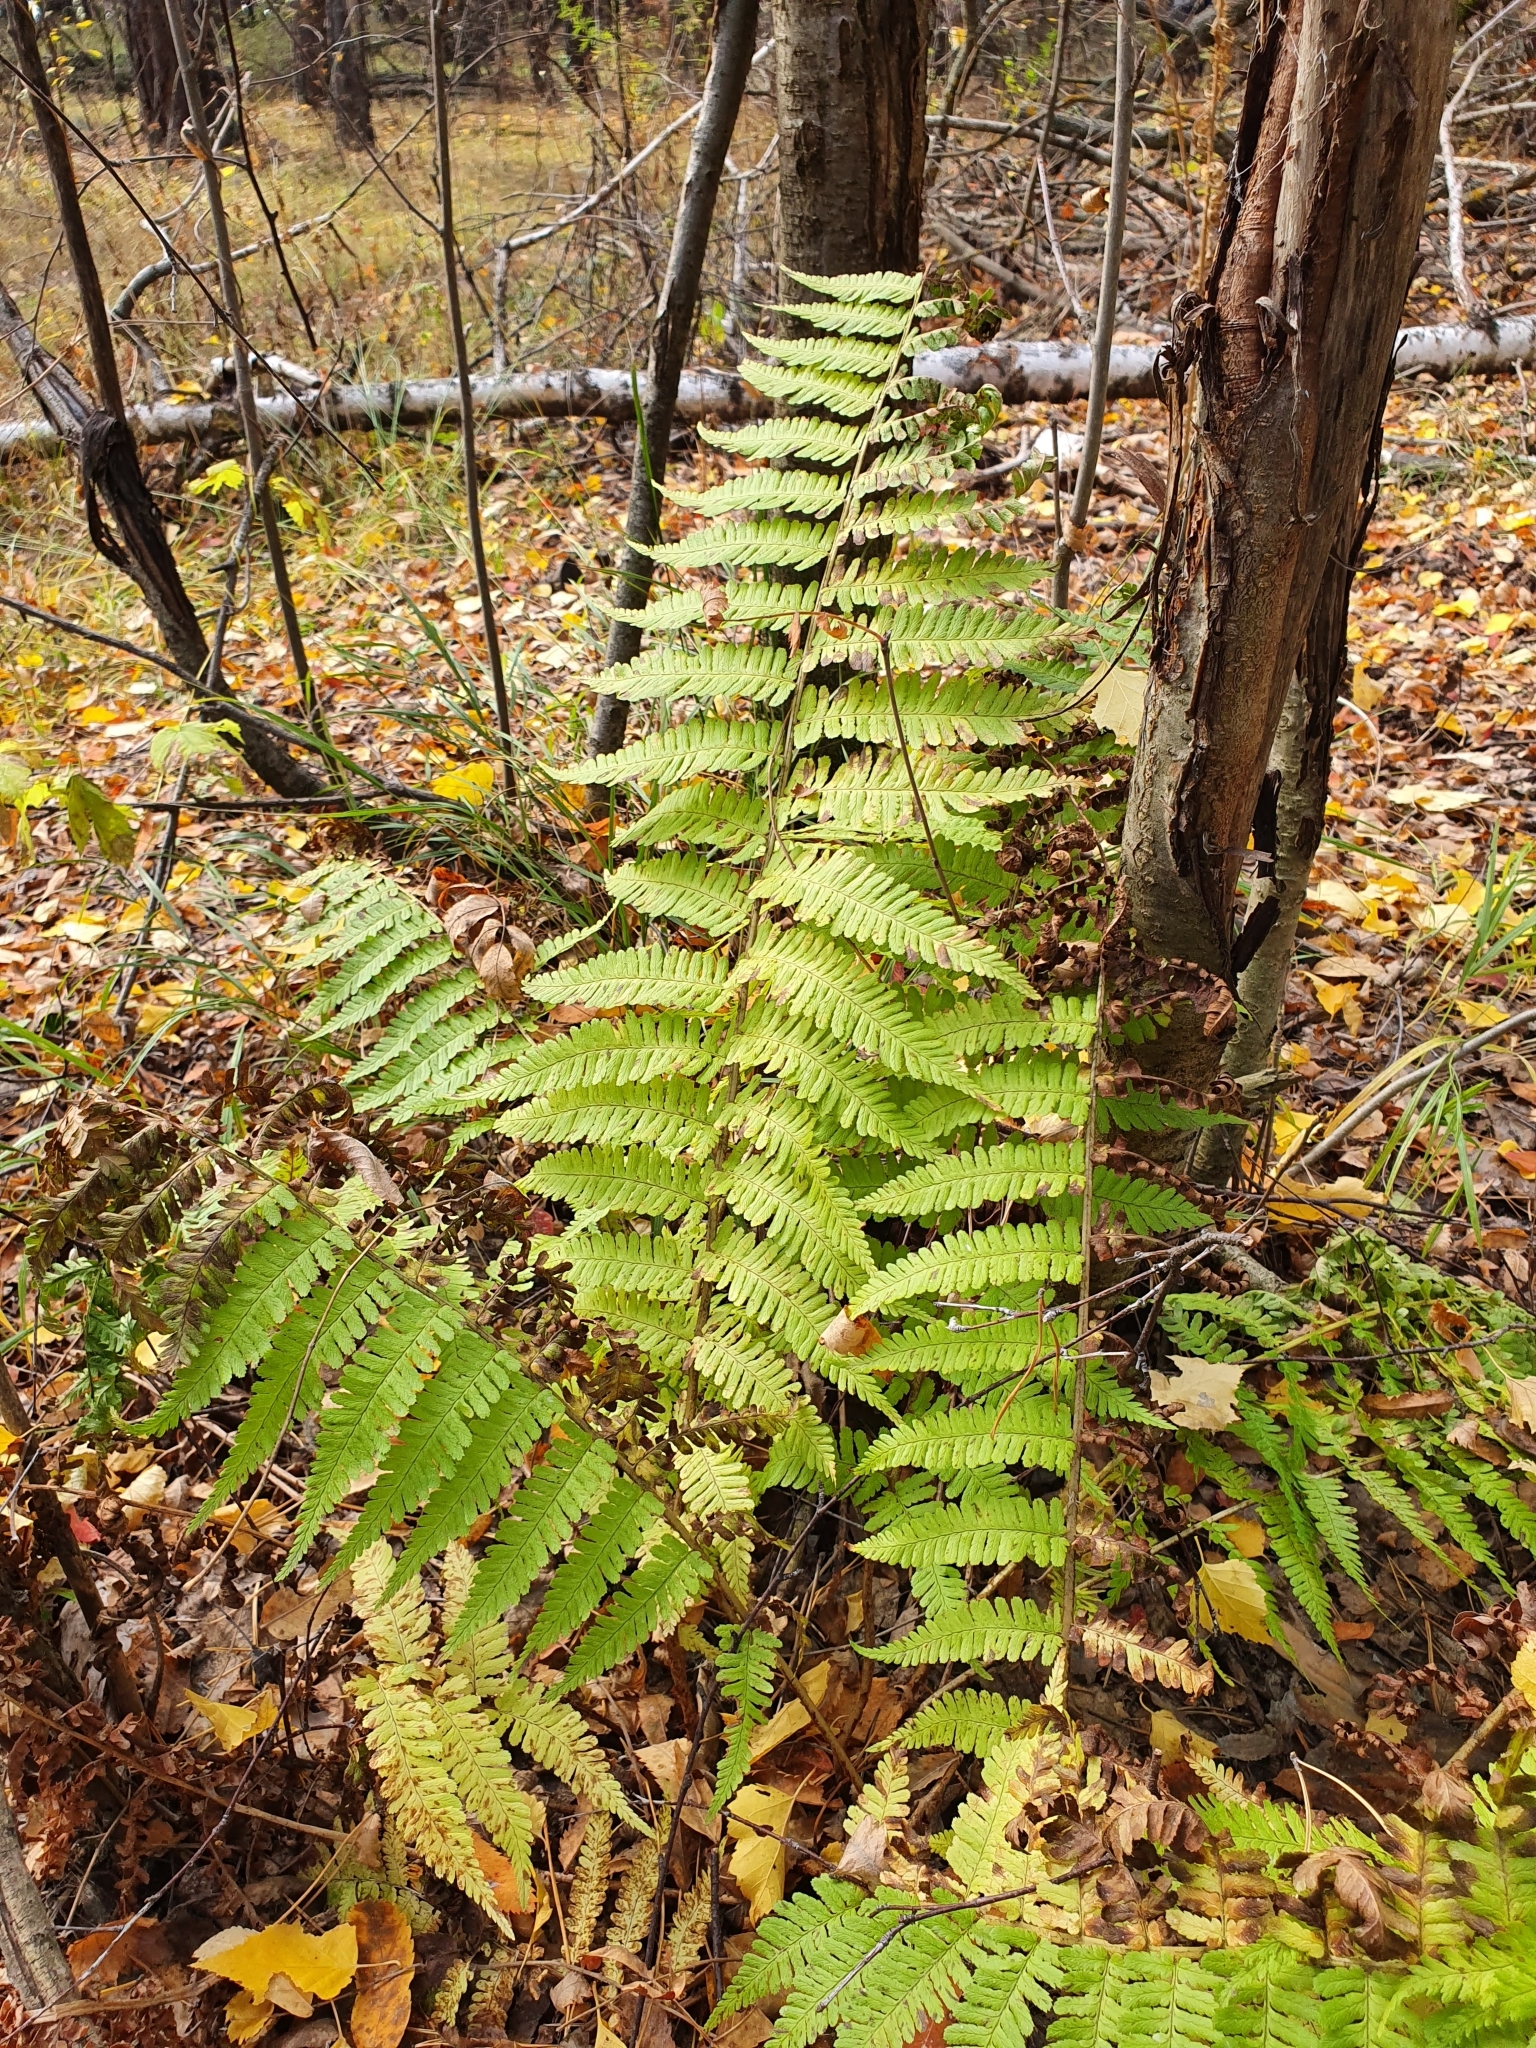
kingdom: Plantae
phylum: Tracheophyta
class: Polypodiopsida
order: Polypodiales
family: Dryopteridaceae
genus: Dryopteris
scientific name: Dryopteris filix-mas
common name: Male fern
